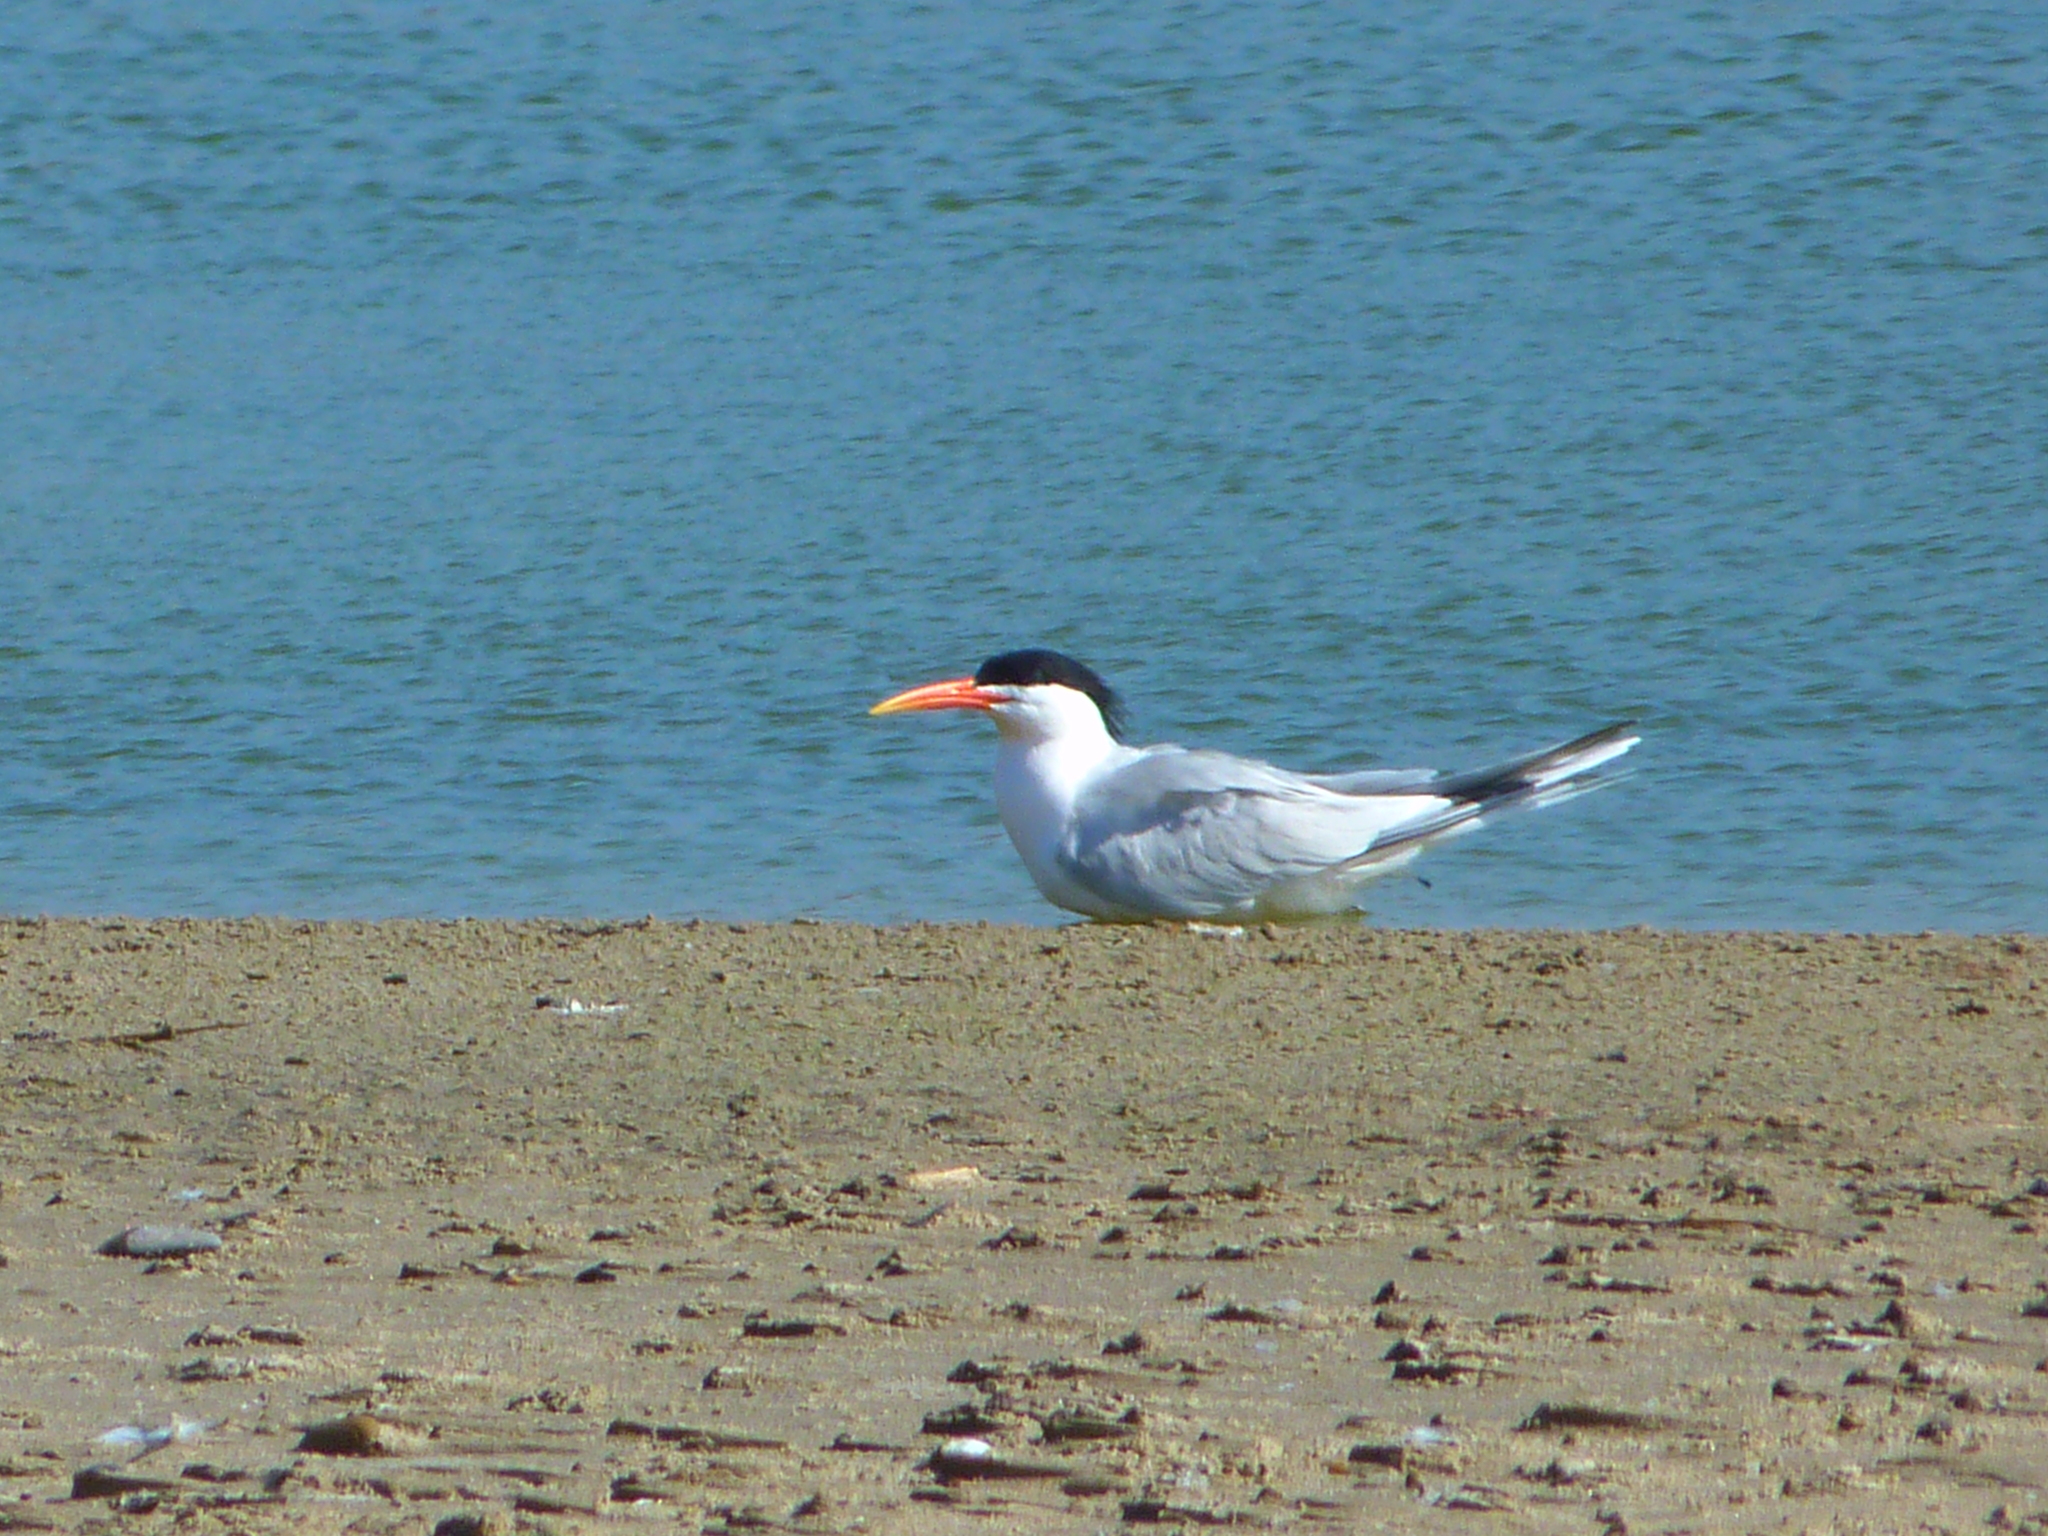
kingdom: Animalia
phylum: Chordata
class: Aves
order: Charadriiformes
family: Laridae
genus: Thalasseus
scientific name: Thalasseus elegans
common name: Elegant tern
